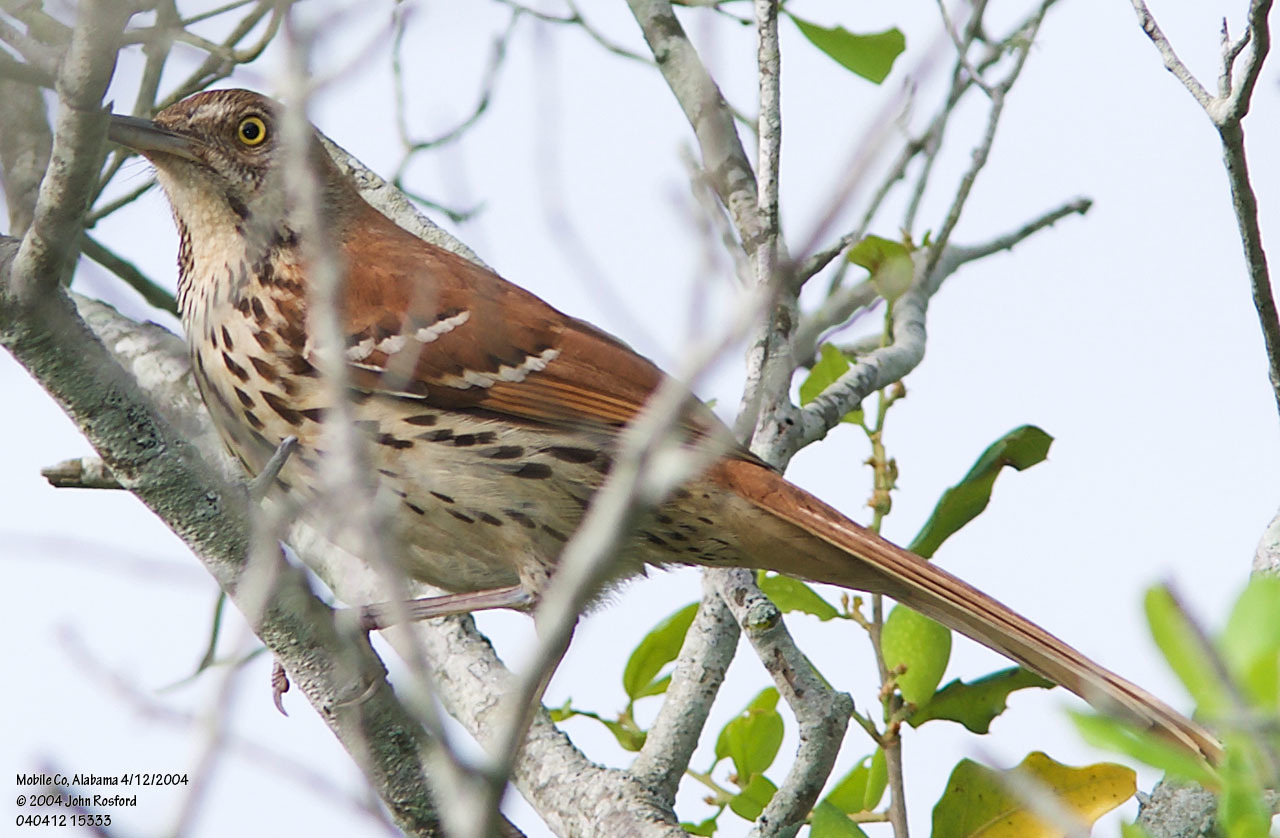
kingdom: Animalia
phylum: Chordata
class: Aves
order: Passeriformes
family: Mimidae
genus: Toxostoma
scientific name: Toxostoma rufum
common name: Brown thrasher
